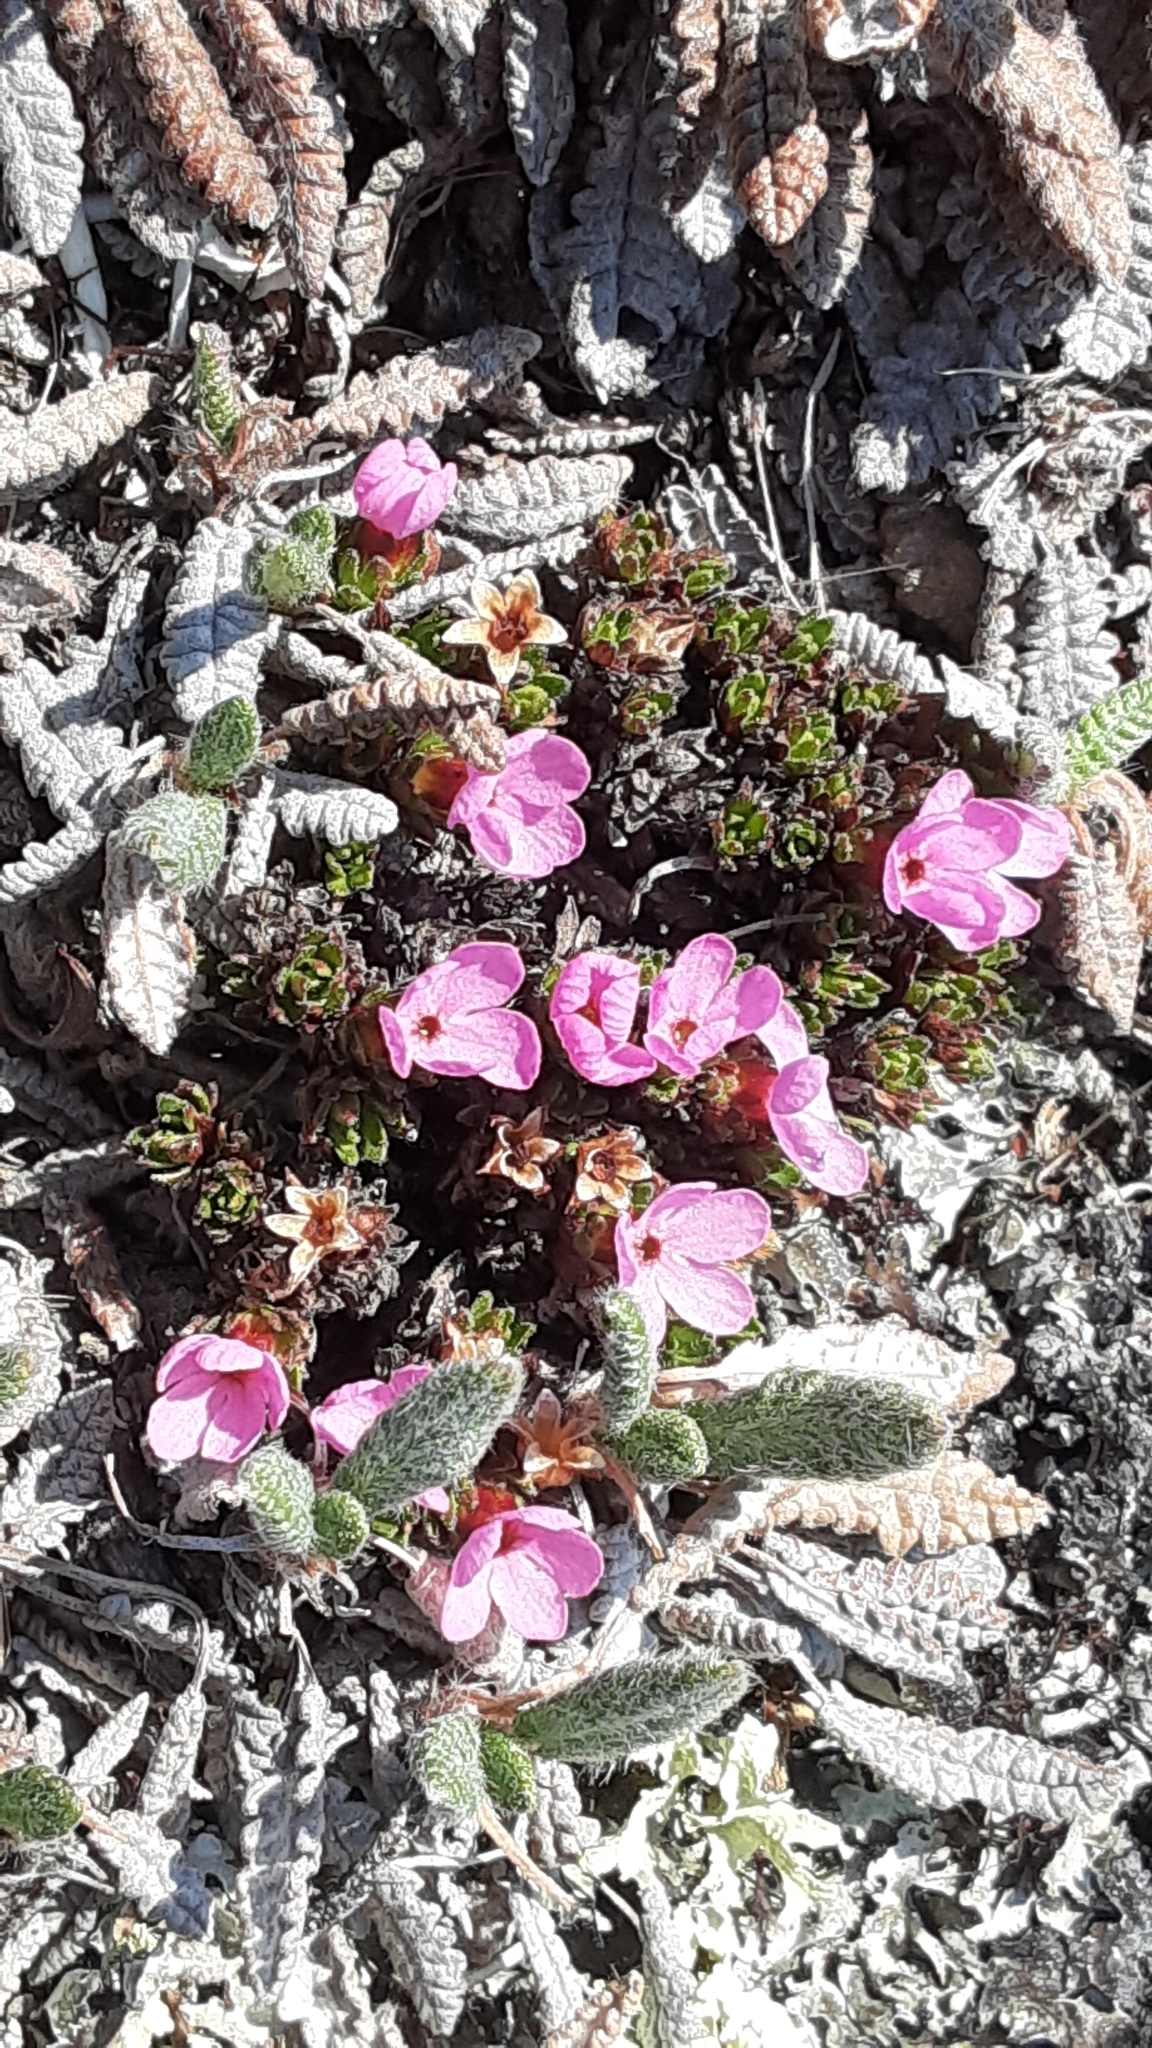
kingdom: Plantae
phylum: Tracheophyta
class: Magnoliopsida
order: Ericales
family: Primulaceae
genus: Androsace
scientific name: Androsace constancei
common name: Gorman's dwarf-primrose
